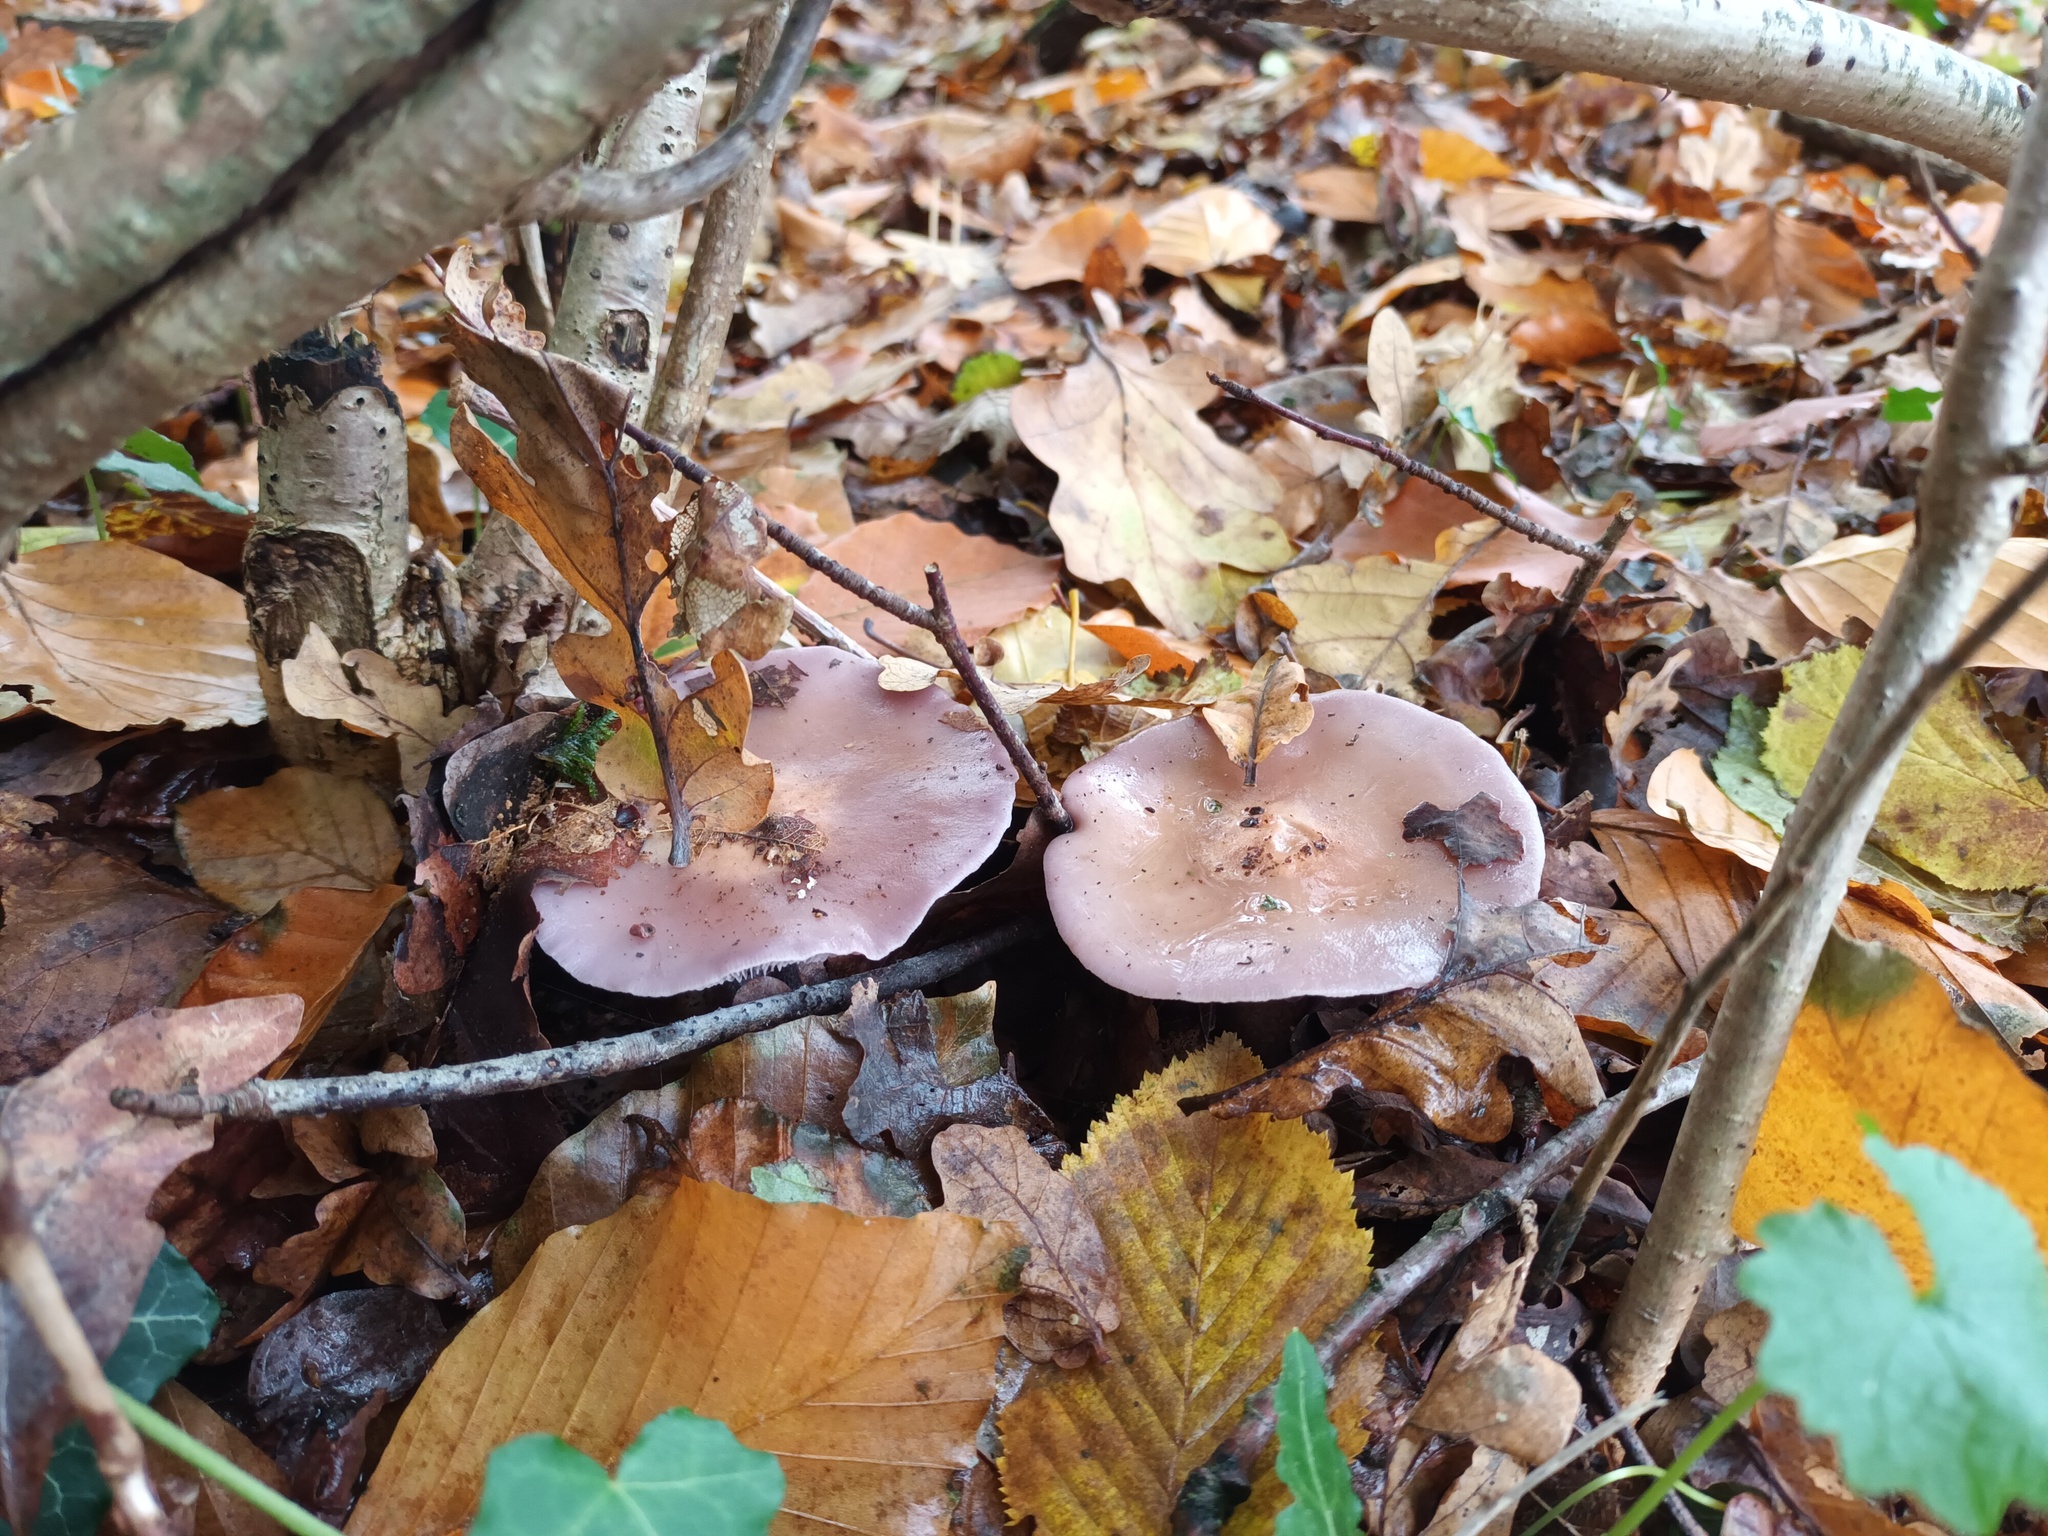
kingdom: Fungi
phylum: Basidiomycota
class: Agaricomycetes
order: Agaricales
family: Tricholomataceae
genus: Collybia
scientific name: Collybia
